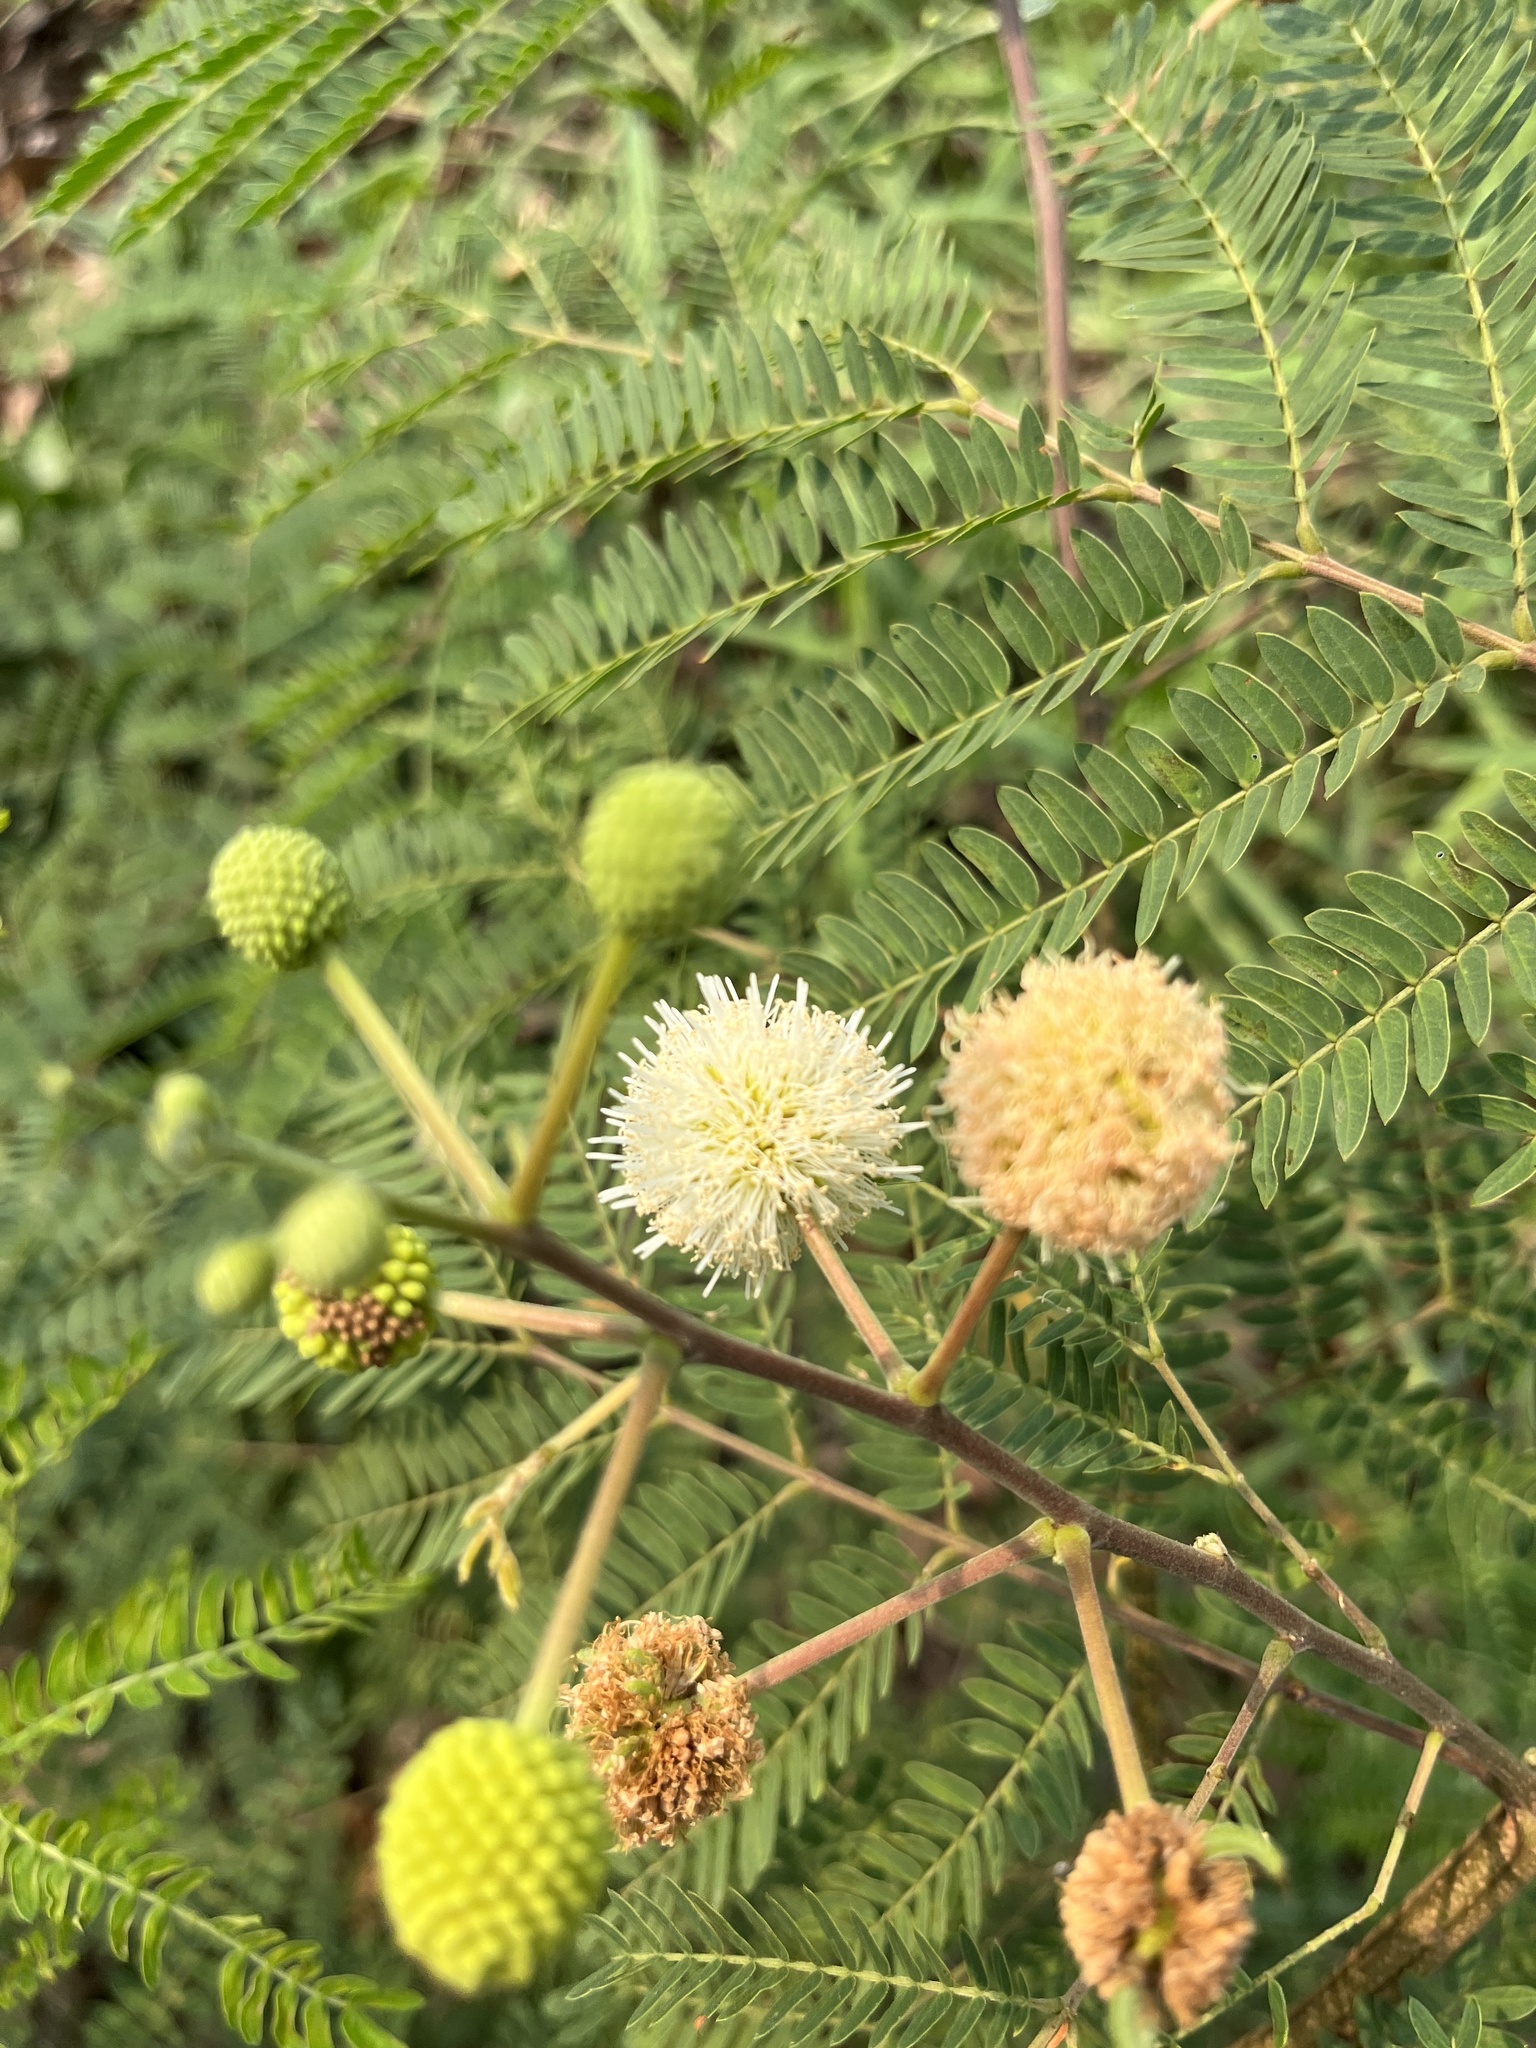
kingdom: Plantae
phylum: Tracheophyta
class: Magnoliopsida
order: Fabales
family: Fabaceae
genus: Leucaena
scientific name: Leucaena leucocephala
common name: White leadtree
